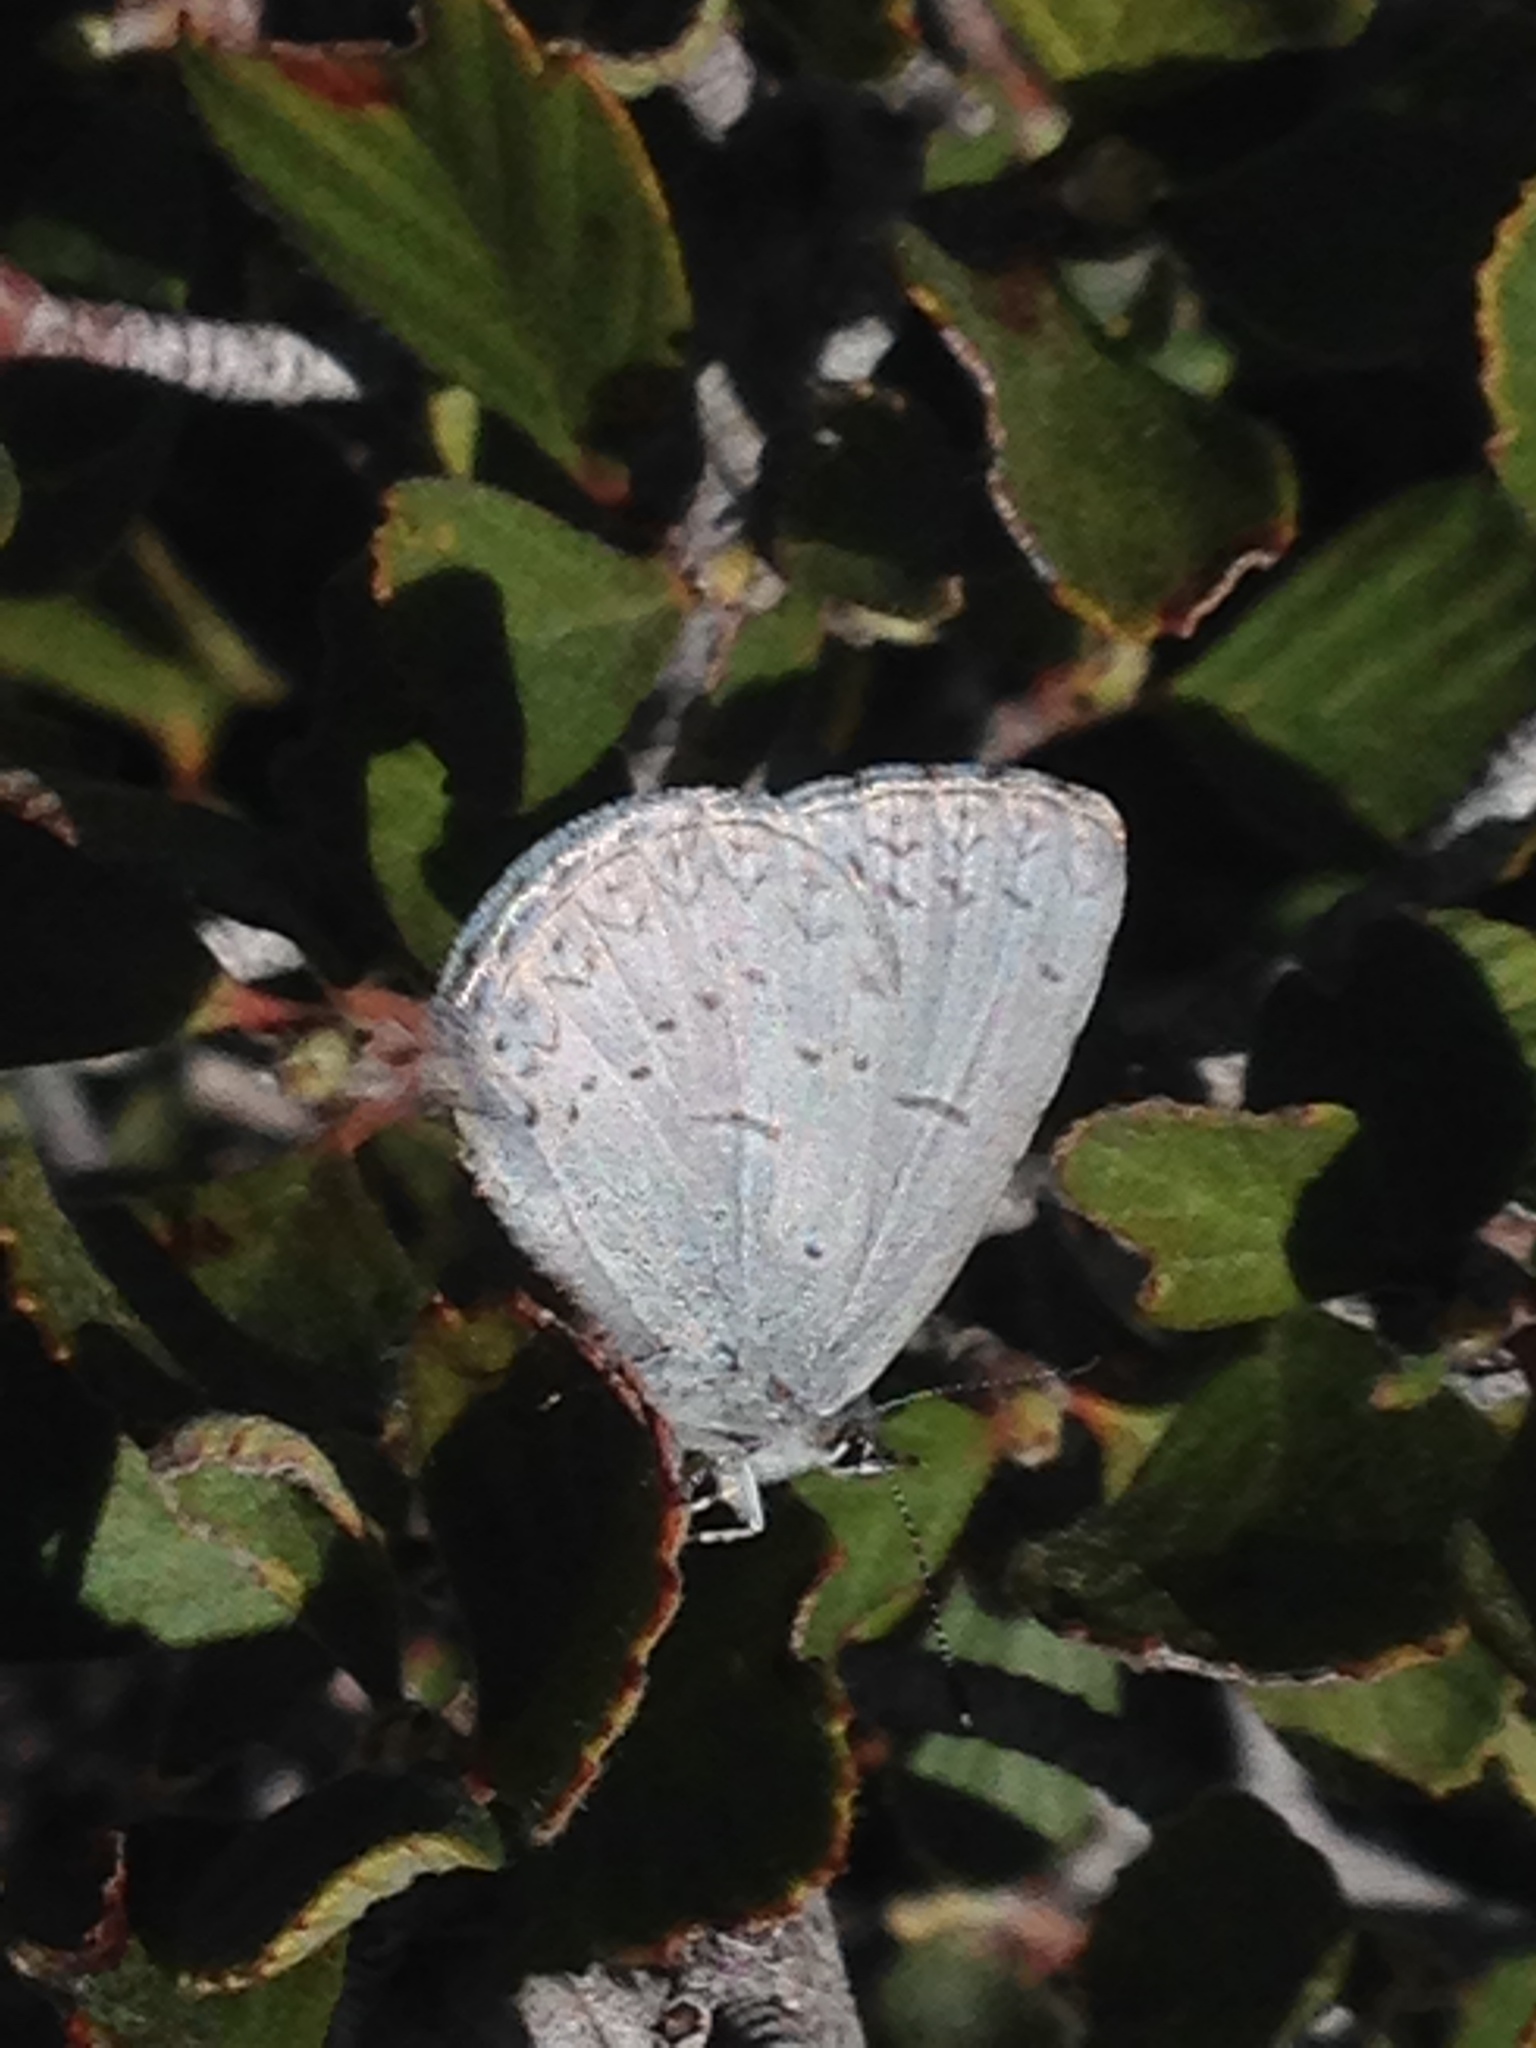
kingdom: Animalia
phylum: Arthropoda
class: Insecta
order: Lepidoptera
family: Lycaenidae
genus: Celastrina
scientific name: Celastrina ladon
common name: Spring azure
